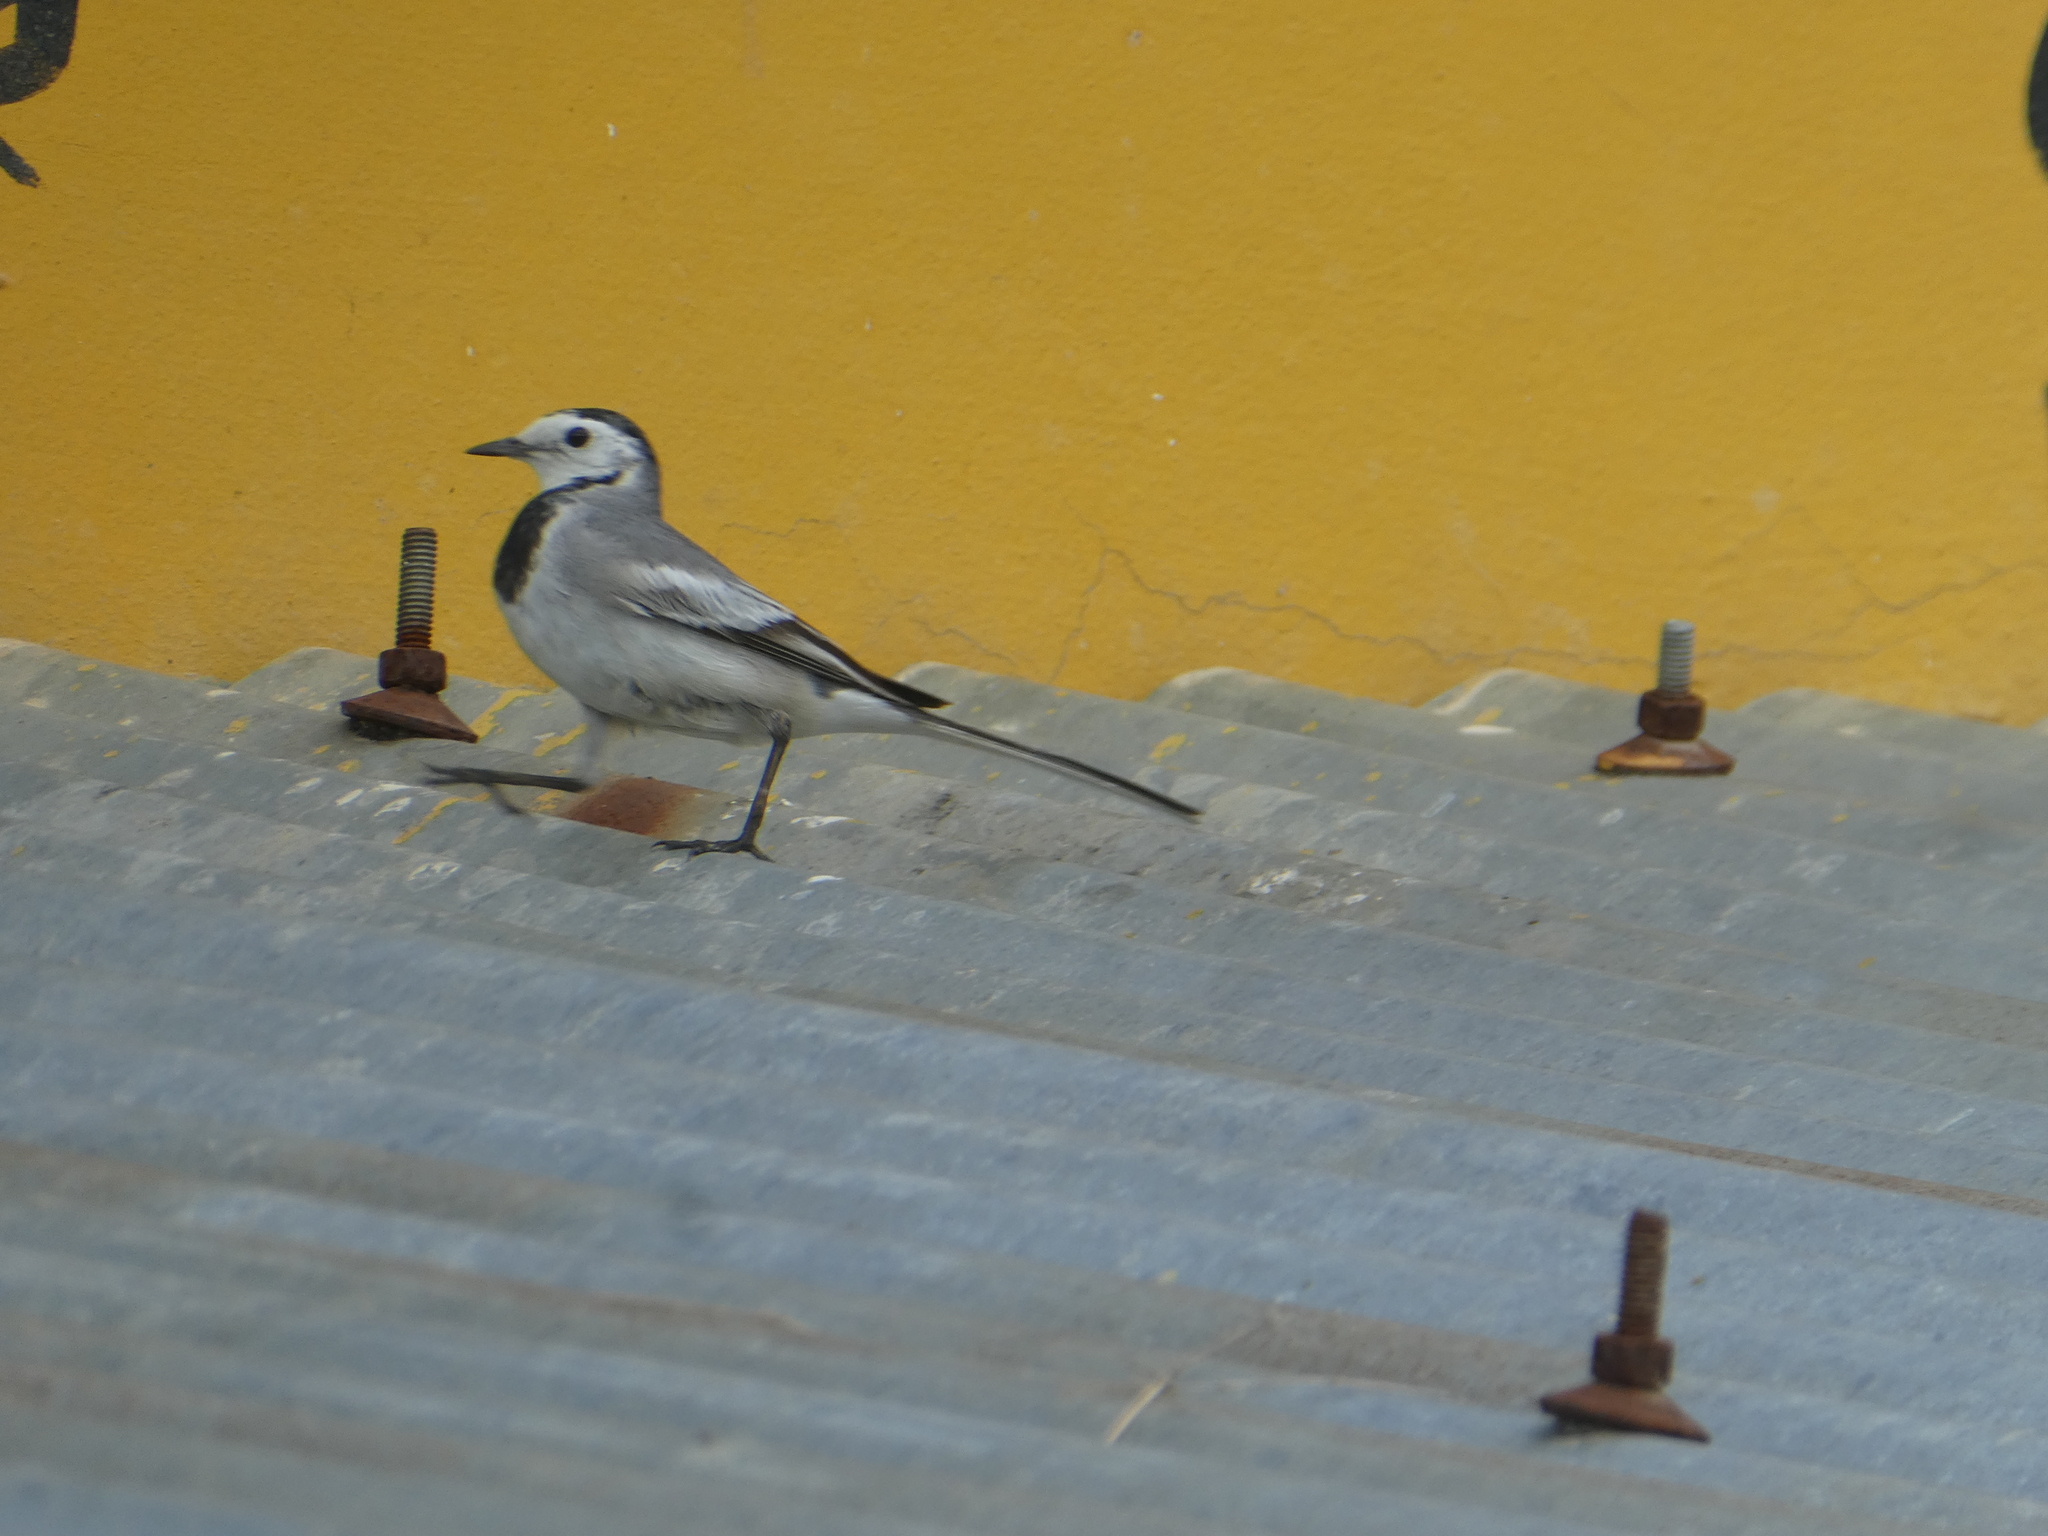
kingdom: Animalia
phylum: Chordata
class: Aves
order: Passeriformes
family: Motacillidae
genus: Motacilla
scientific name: Motacilla alba
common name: White wagtail
